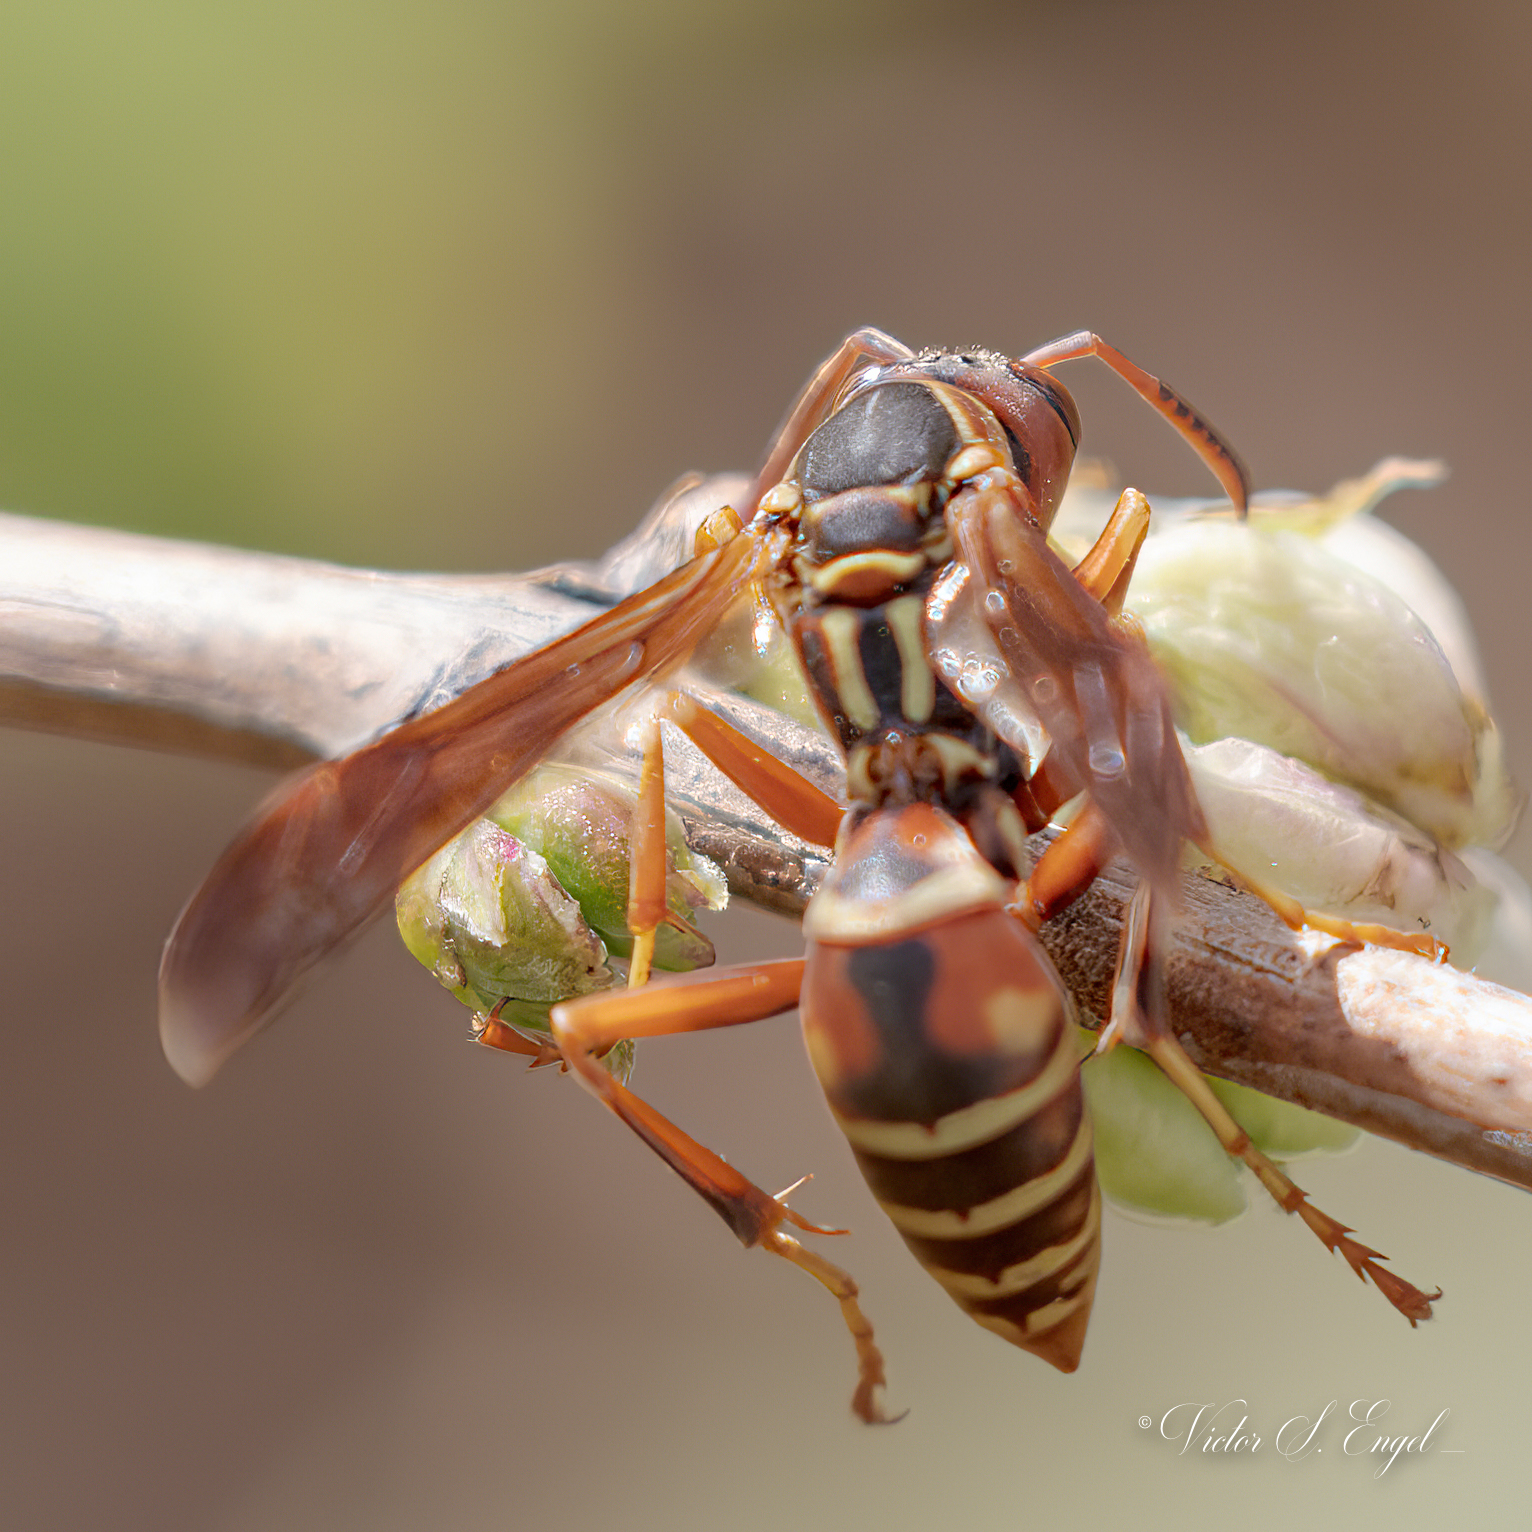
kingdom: Animalia
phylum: Arthropoda
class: Insecta
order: Hymenoptera
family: Eumenidae
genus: Polistes
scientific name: Polistes fuscatus
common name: Dark paper wasp
